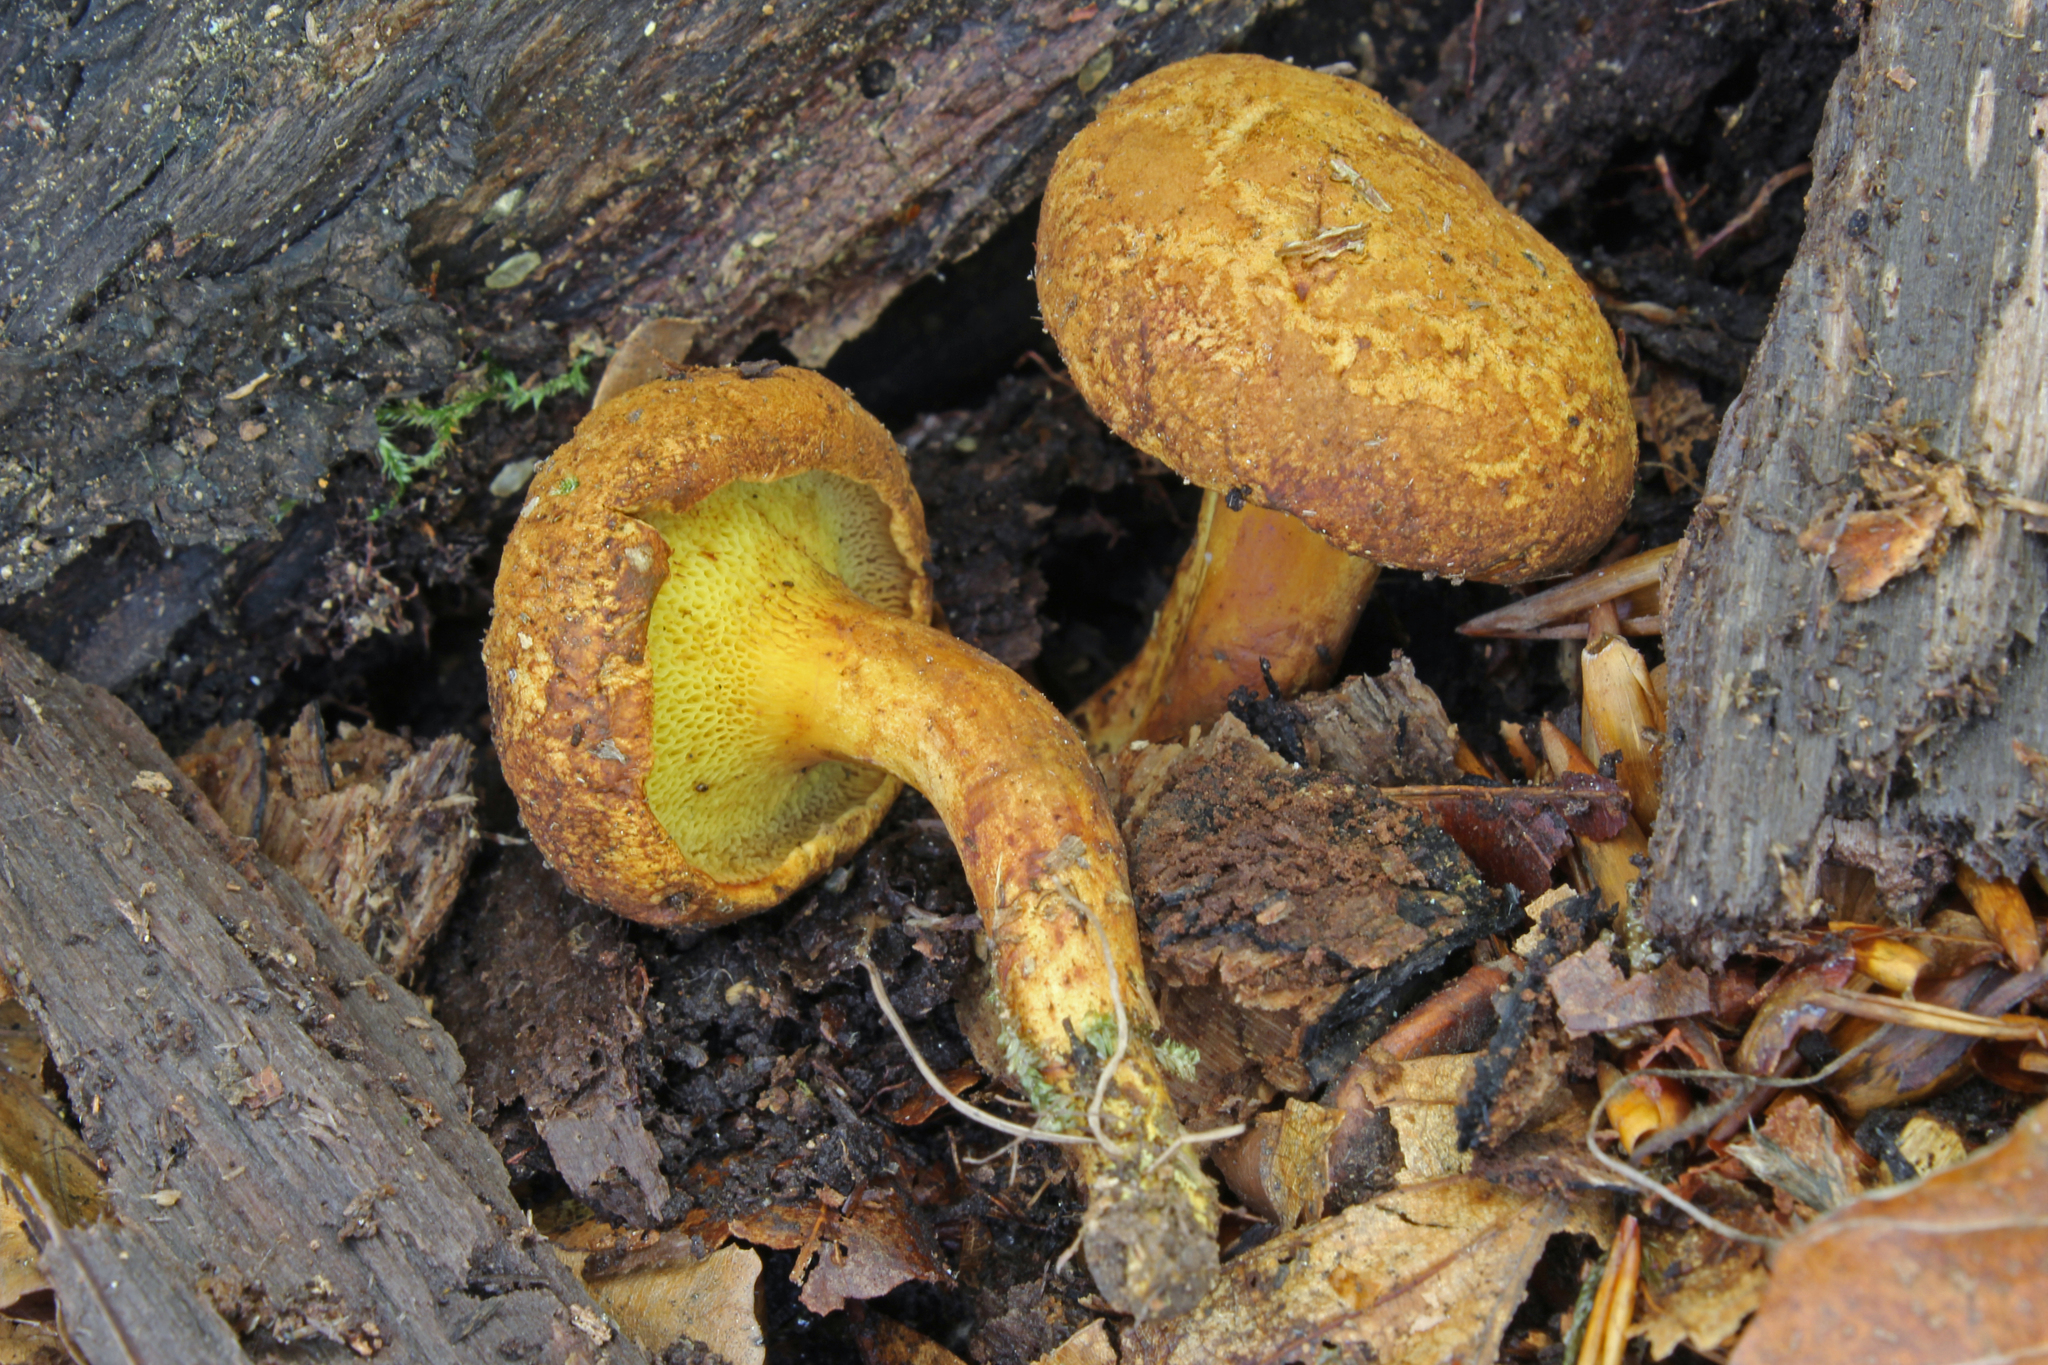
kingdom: Fungi
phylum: Basidiomycota
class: Agaricomycetes
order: Boletales
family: Boletaceae
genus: Buchwaldoboletus
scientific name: Buchwaldoboletus lignicola
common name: Wood bolete
